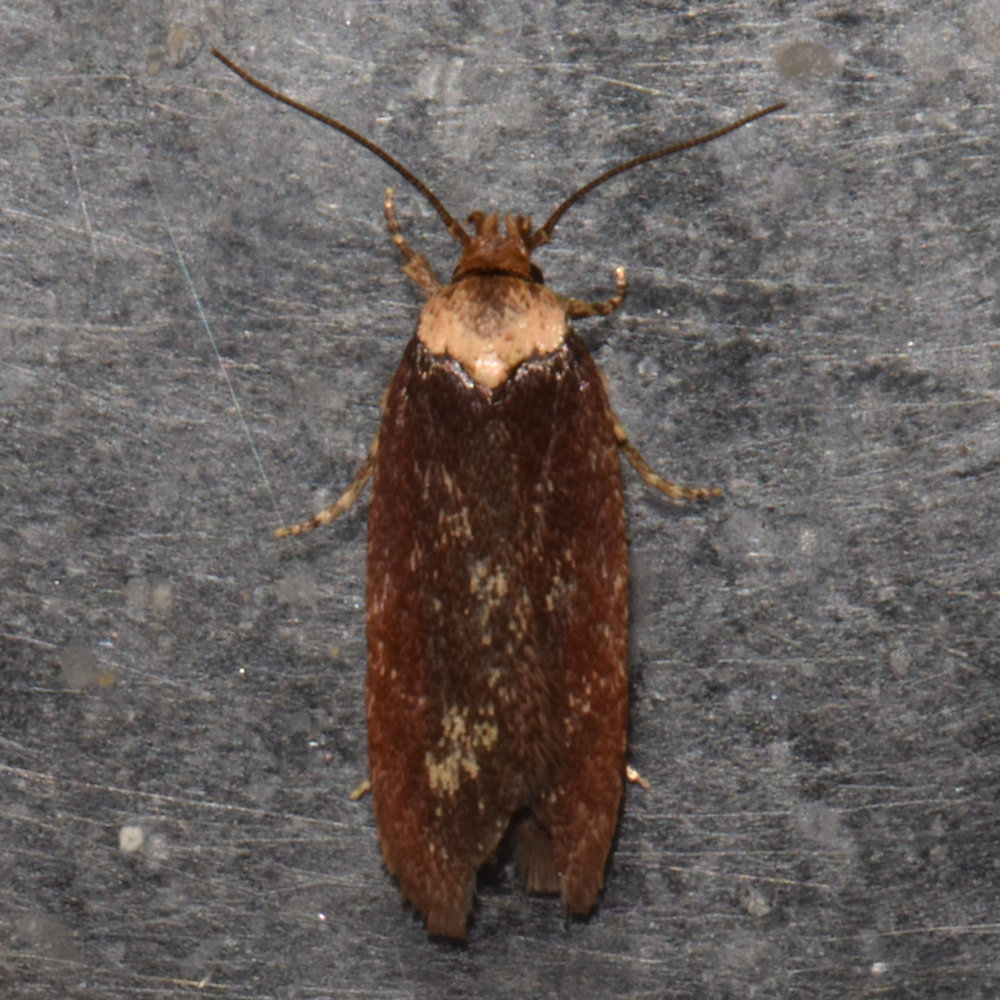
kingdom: Animalia
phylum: Arthropoda
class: Insecta
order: Lepidoptera
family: Depressariidae
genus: Depressaria
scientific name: Depressaria depressana
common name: Lost flat-body
